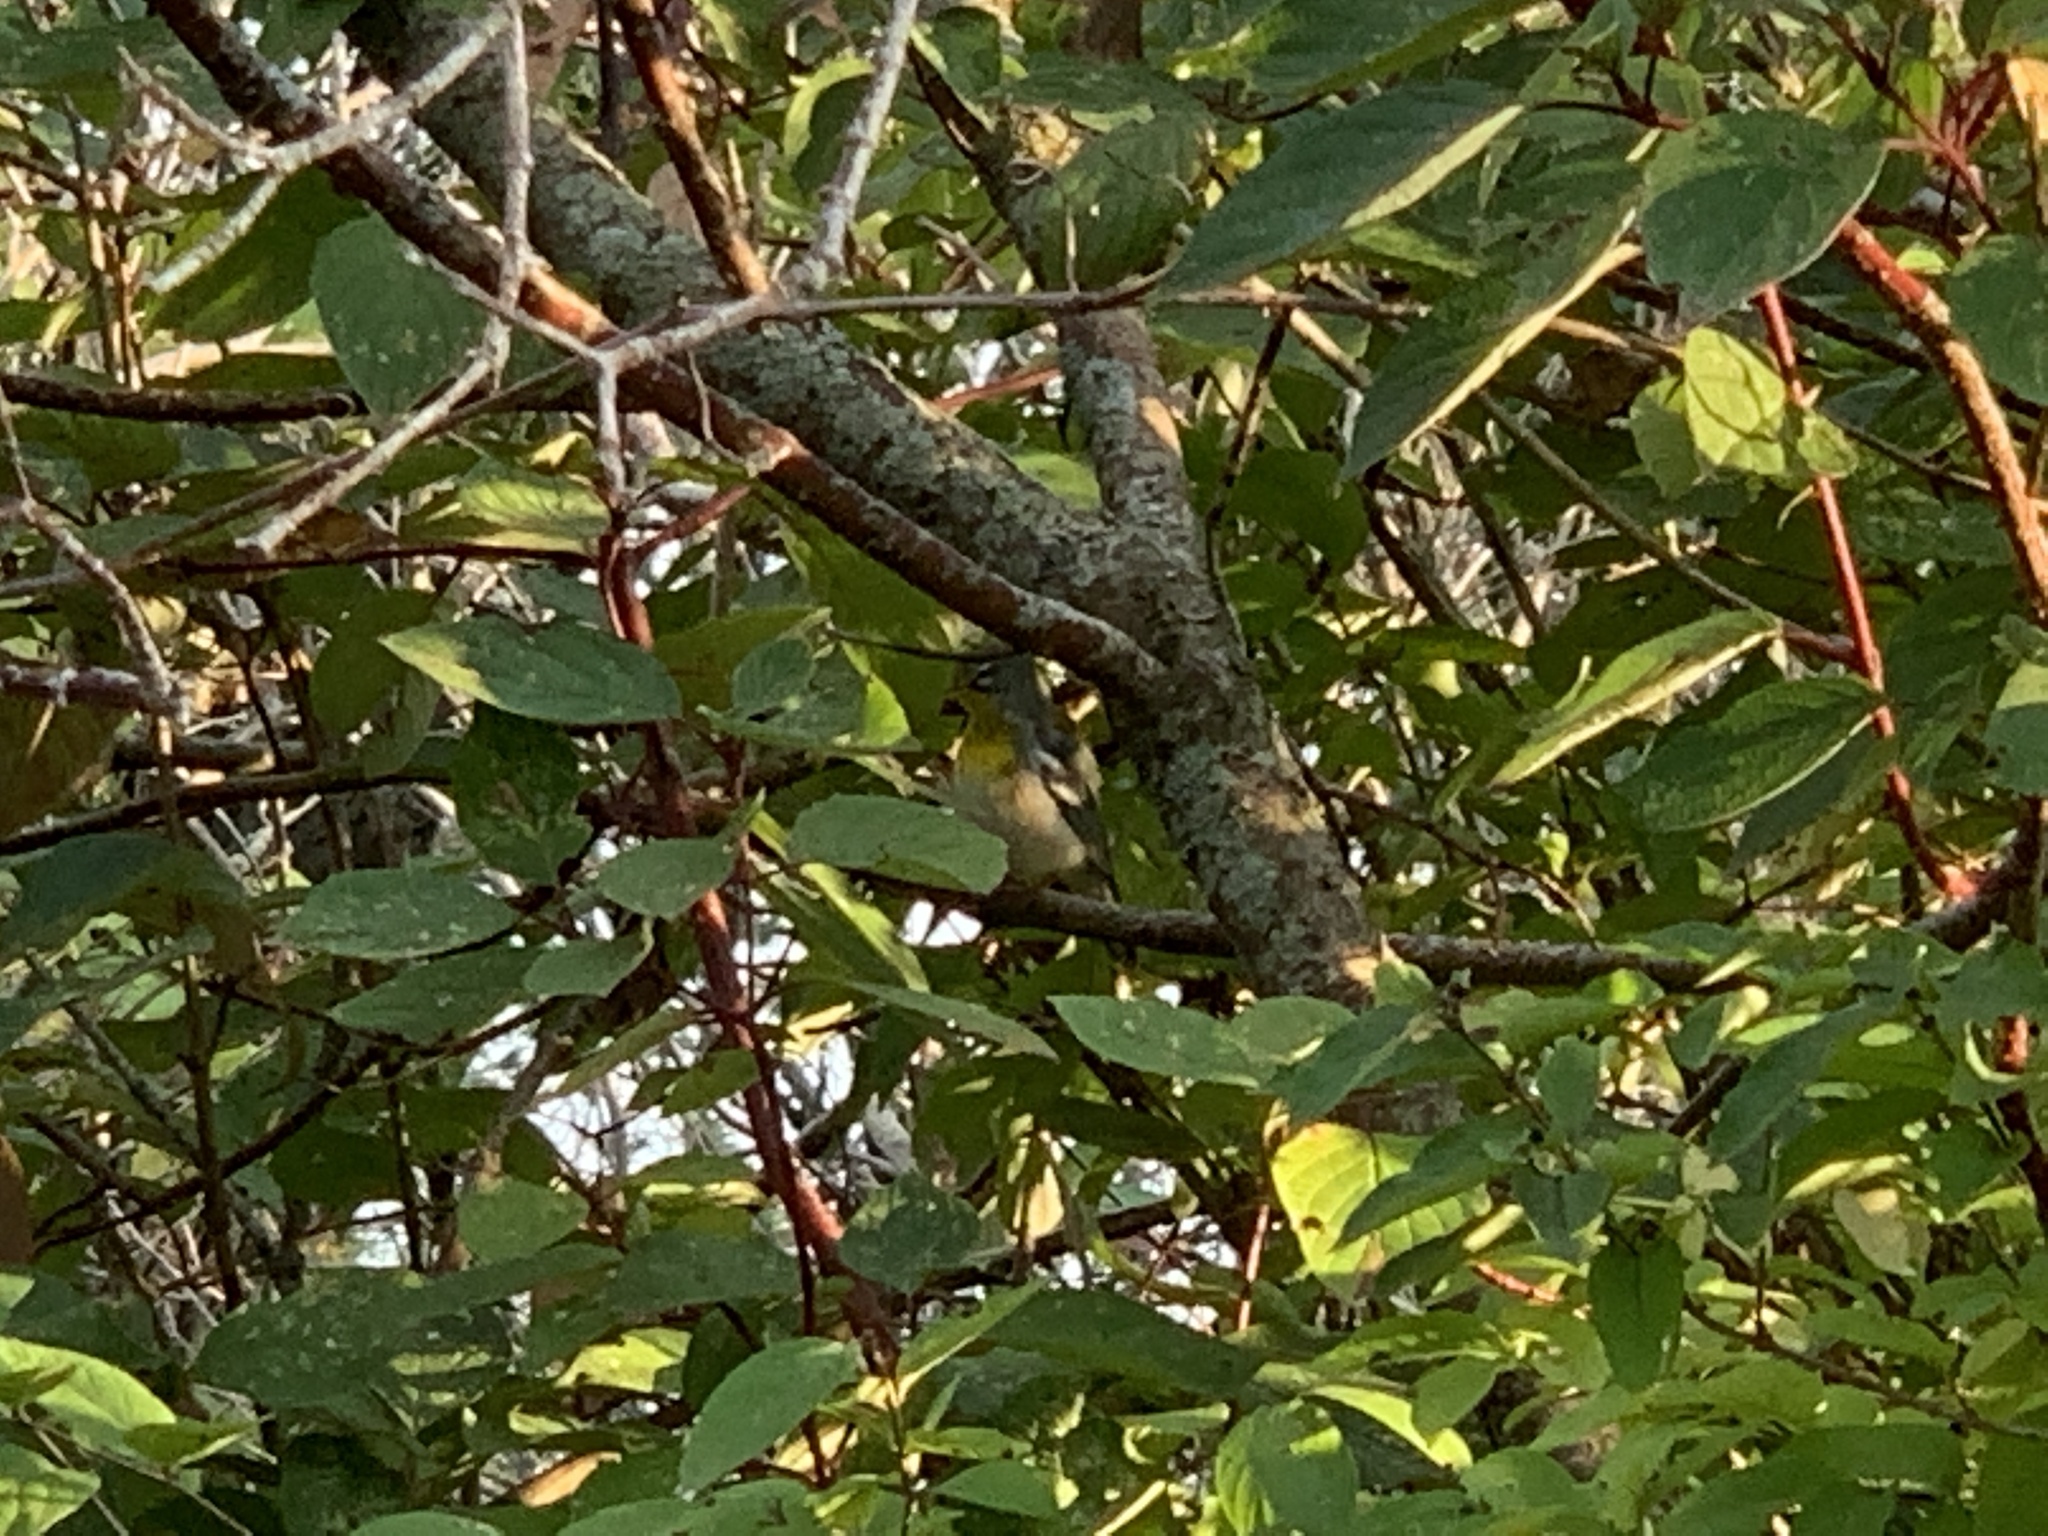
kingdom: Animalia
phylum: Chordata
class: Aves
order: Passeriformes
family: Parulidae
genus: Setophaga
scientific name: Setophaga americana
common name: Northern parula
